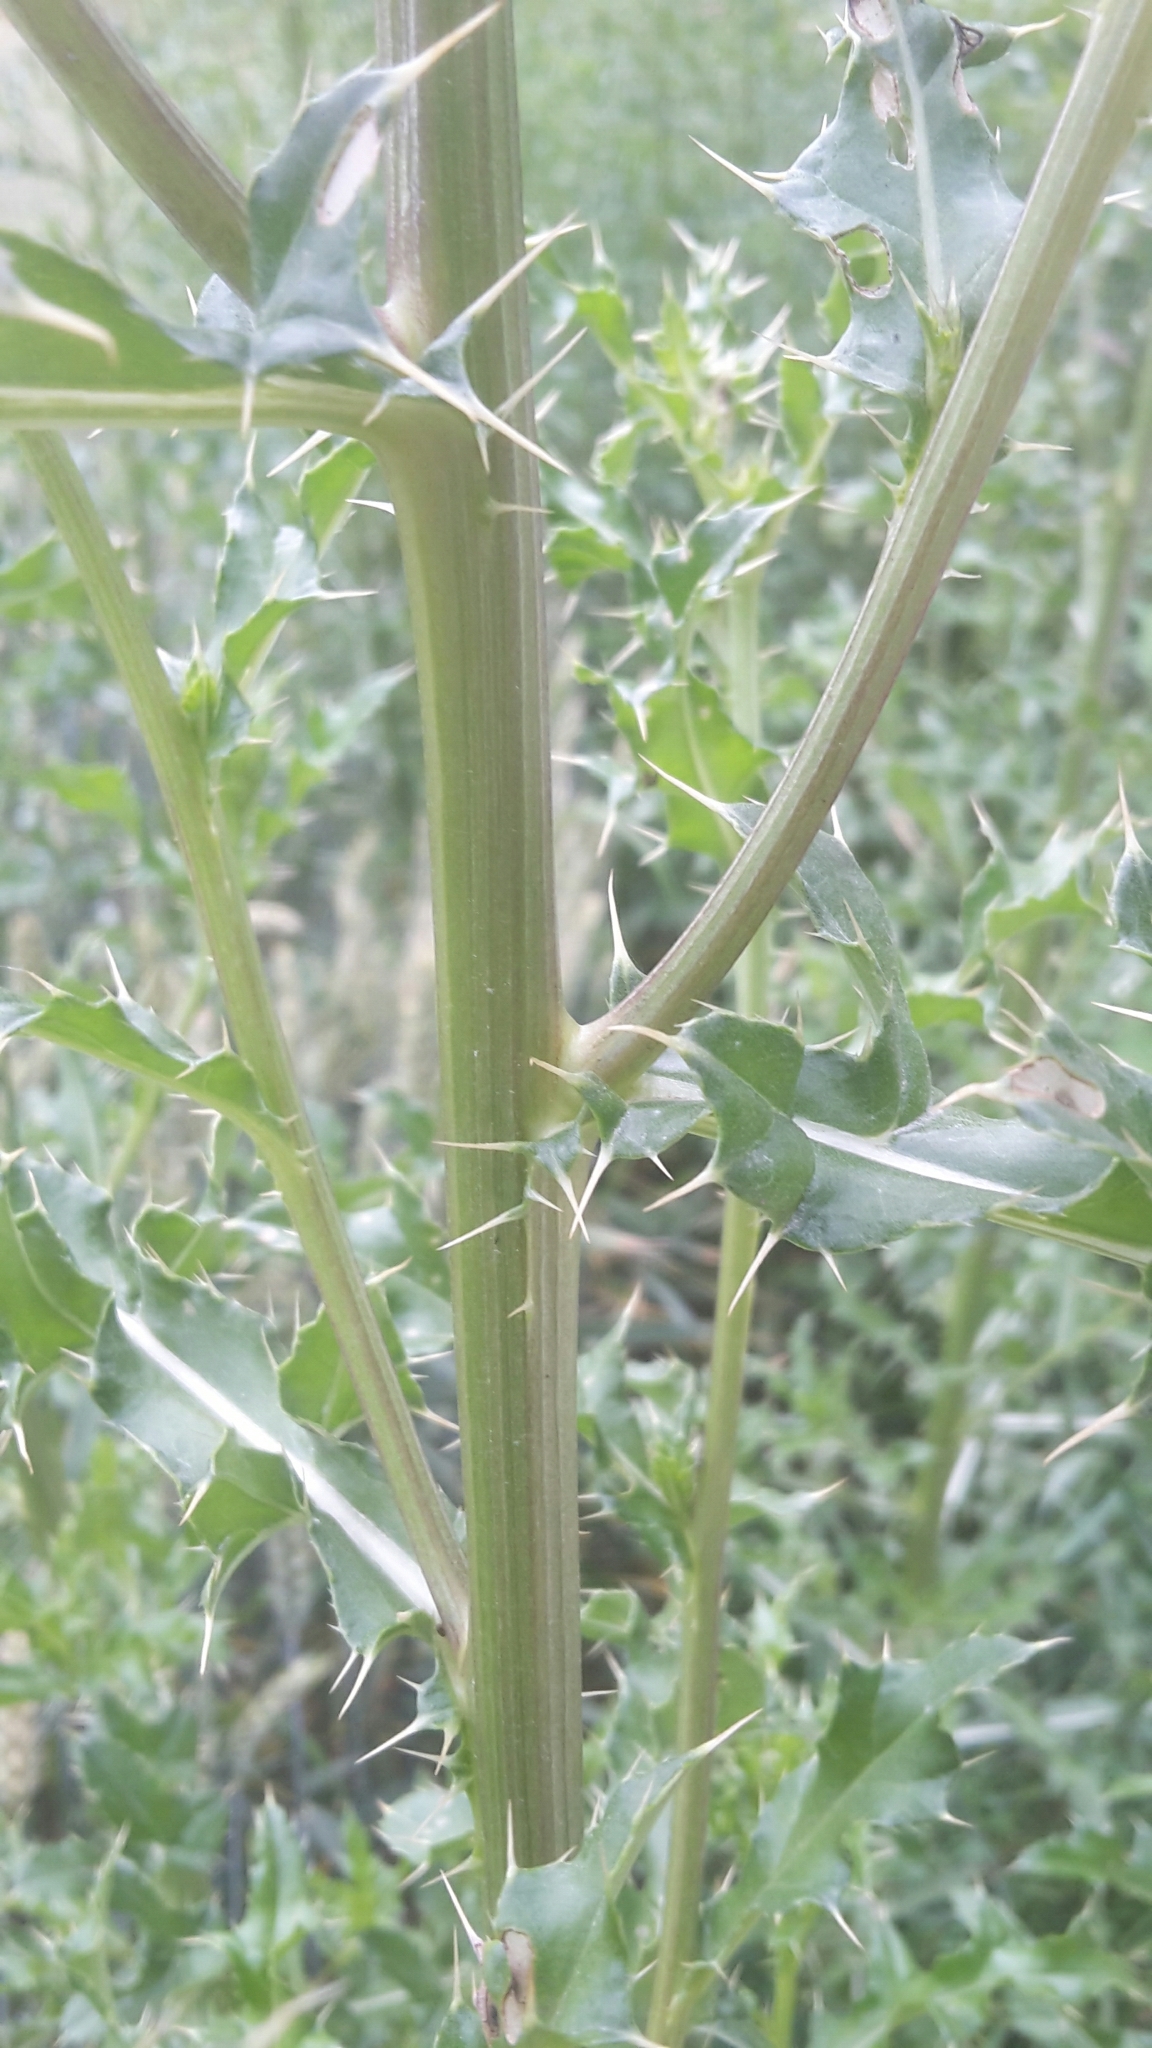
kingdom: Plantae
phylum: Tracheophyta
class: Magnoliopsida
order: Asterales
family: Asteraceae
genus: Cirsium
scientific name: Cirsium arvense
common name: Creeping thistle
